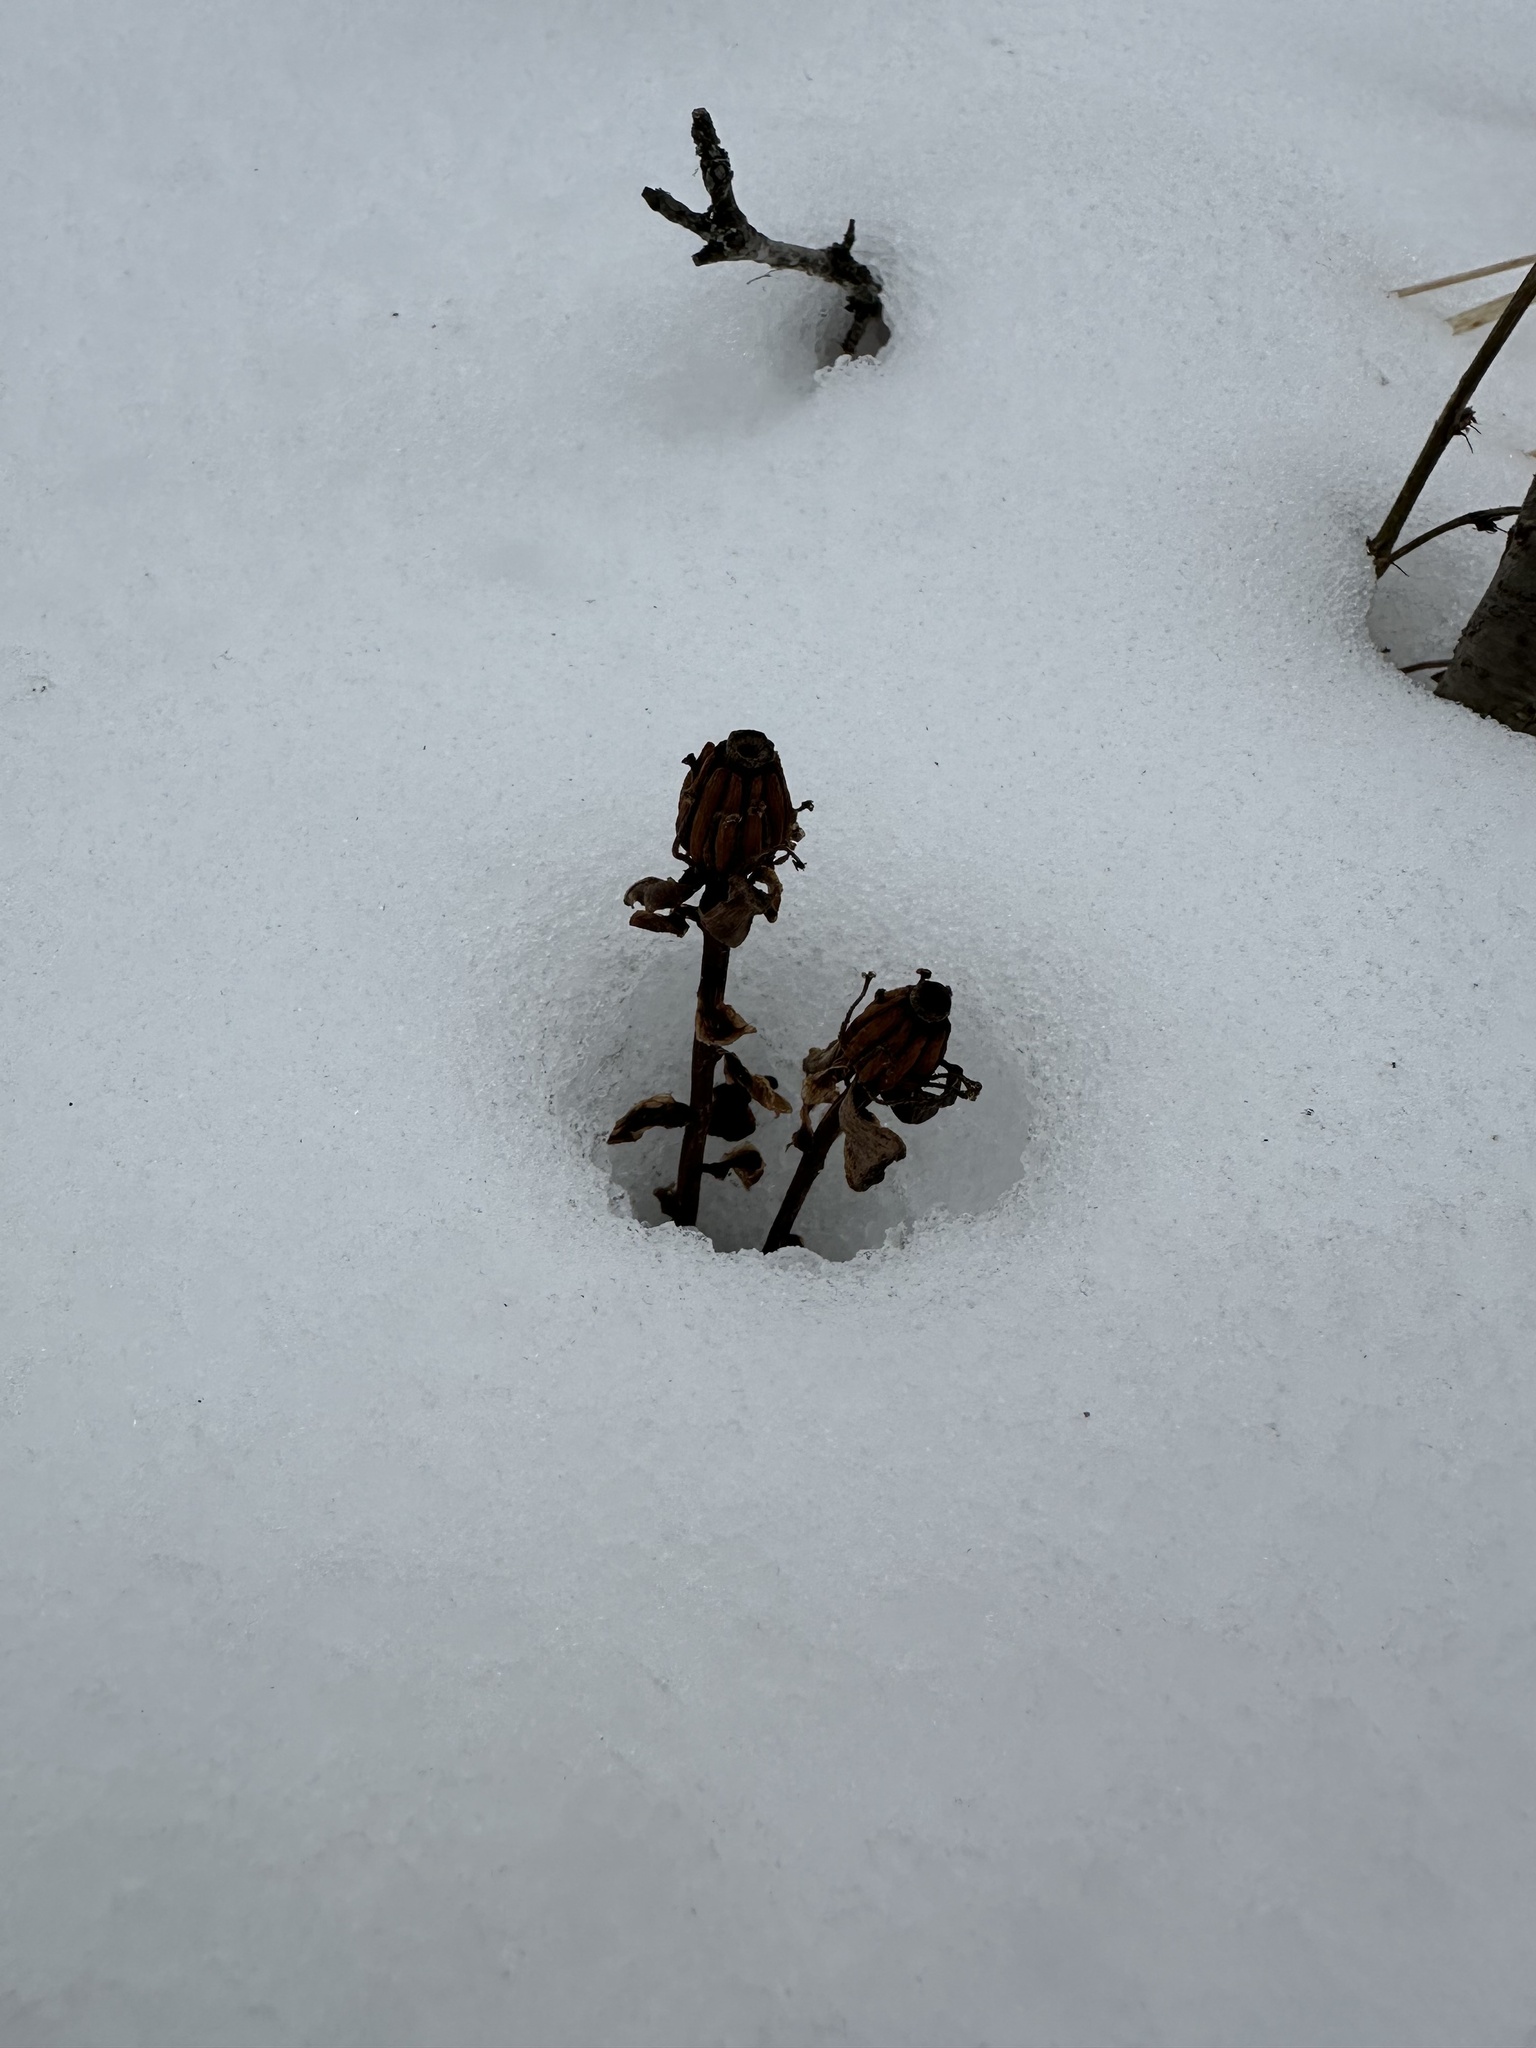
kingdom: Plantae
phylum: Tracheophyta
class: Magnoliopsida
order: Ericales
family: Ericaceae
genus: Monotropa
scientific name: Monotropa uniflora
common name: Convulsion root
